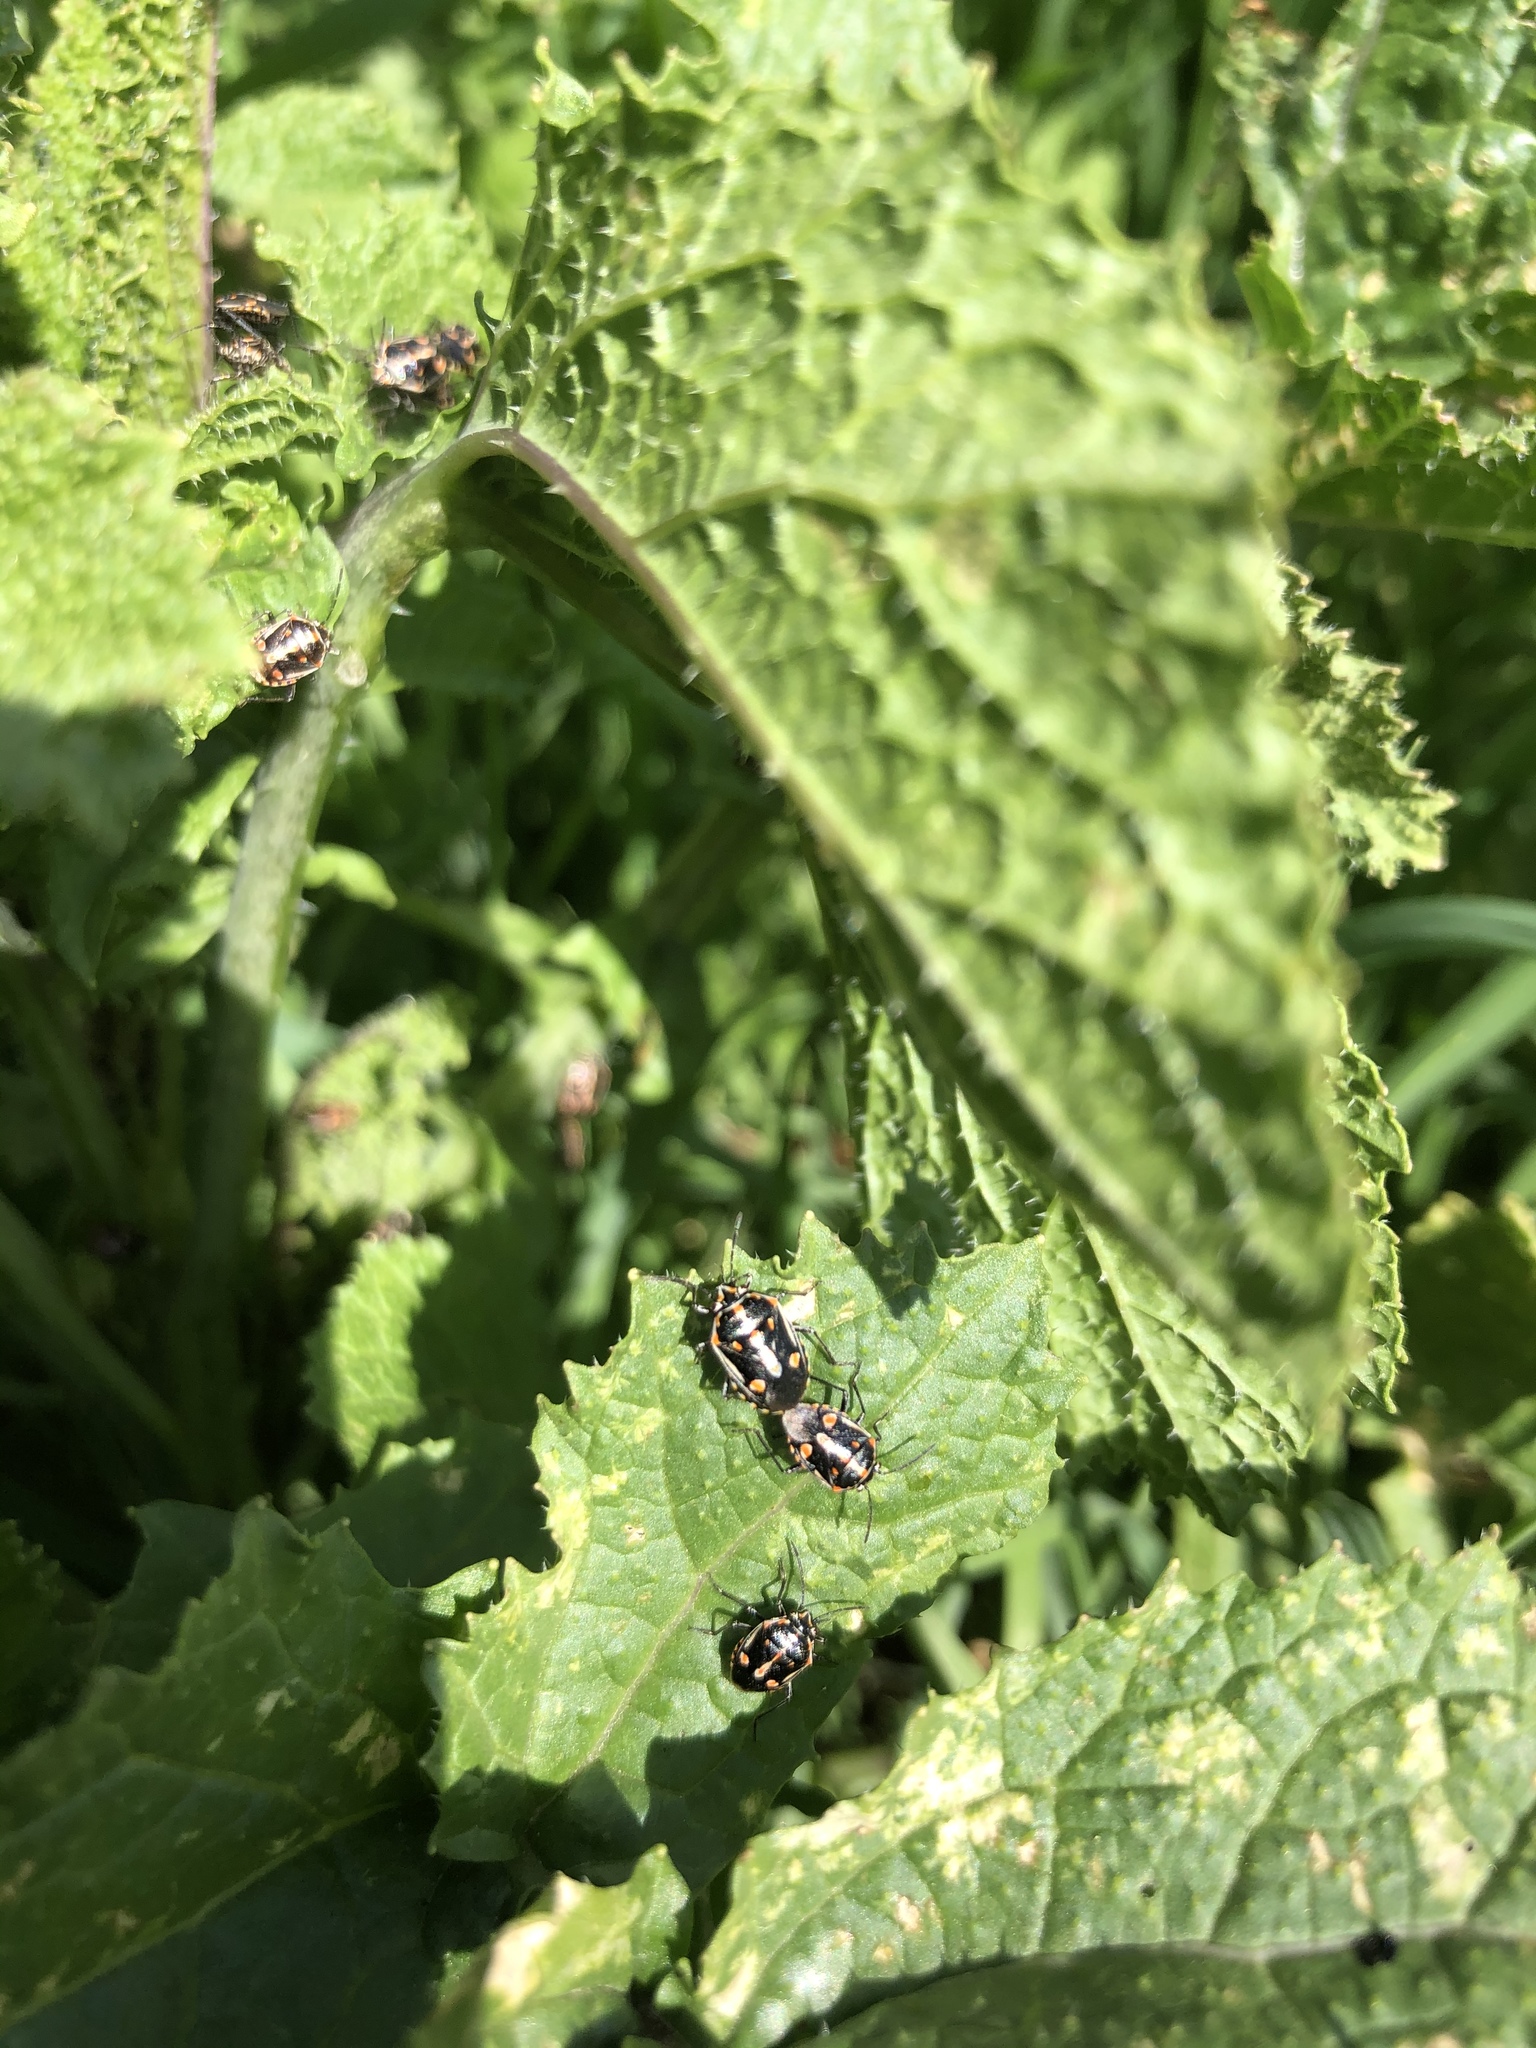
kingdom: Animalia
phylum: Arthropoda
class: Insecta
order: Hemiptera
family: Pentatomidae
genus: Bagrada
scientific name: Bagrada hilaris
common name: Bagrada bug
